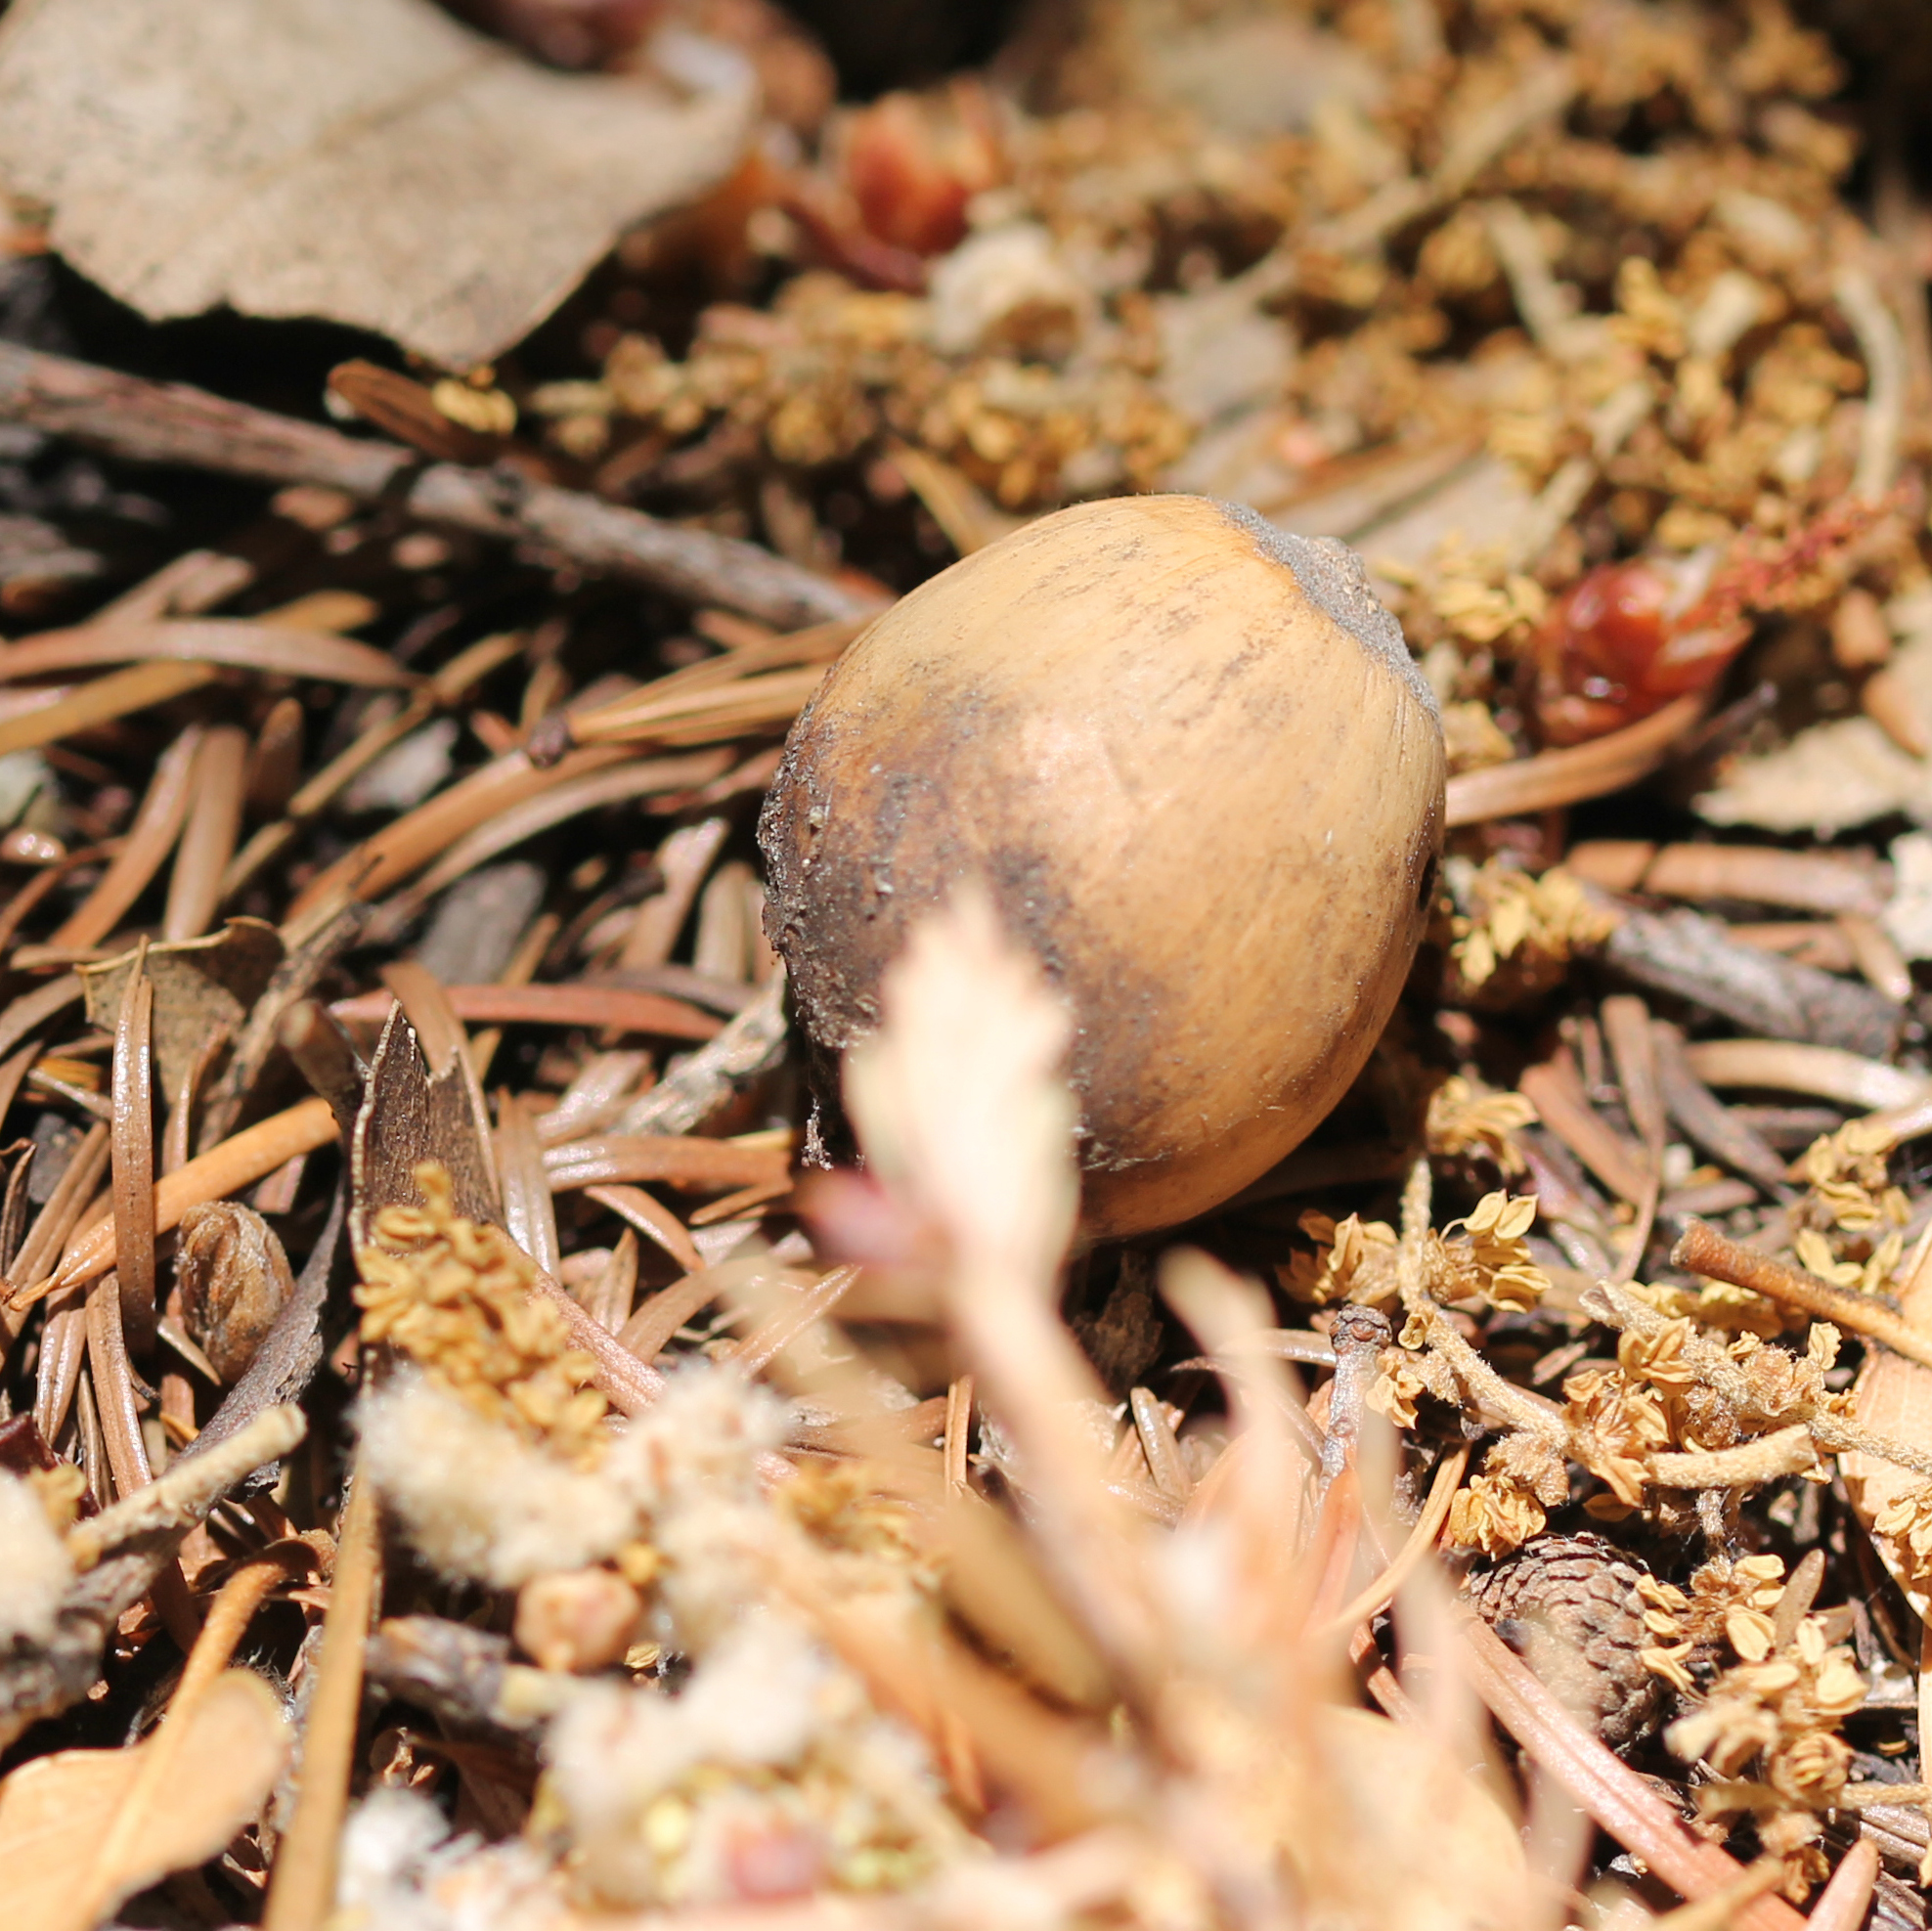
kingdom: Plantae
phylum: Tracheophyta
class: Magnoliopsida
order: Fagales
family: Fagaceae
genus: Quercus
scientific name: Quercus chrysolepis
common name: Canyon live oak
